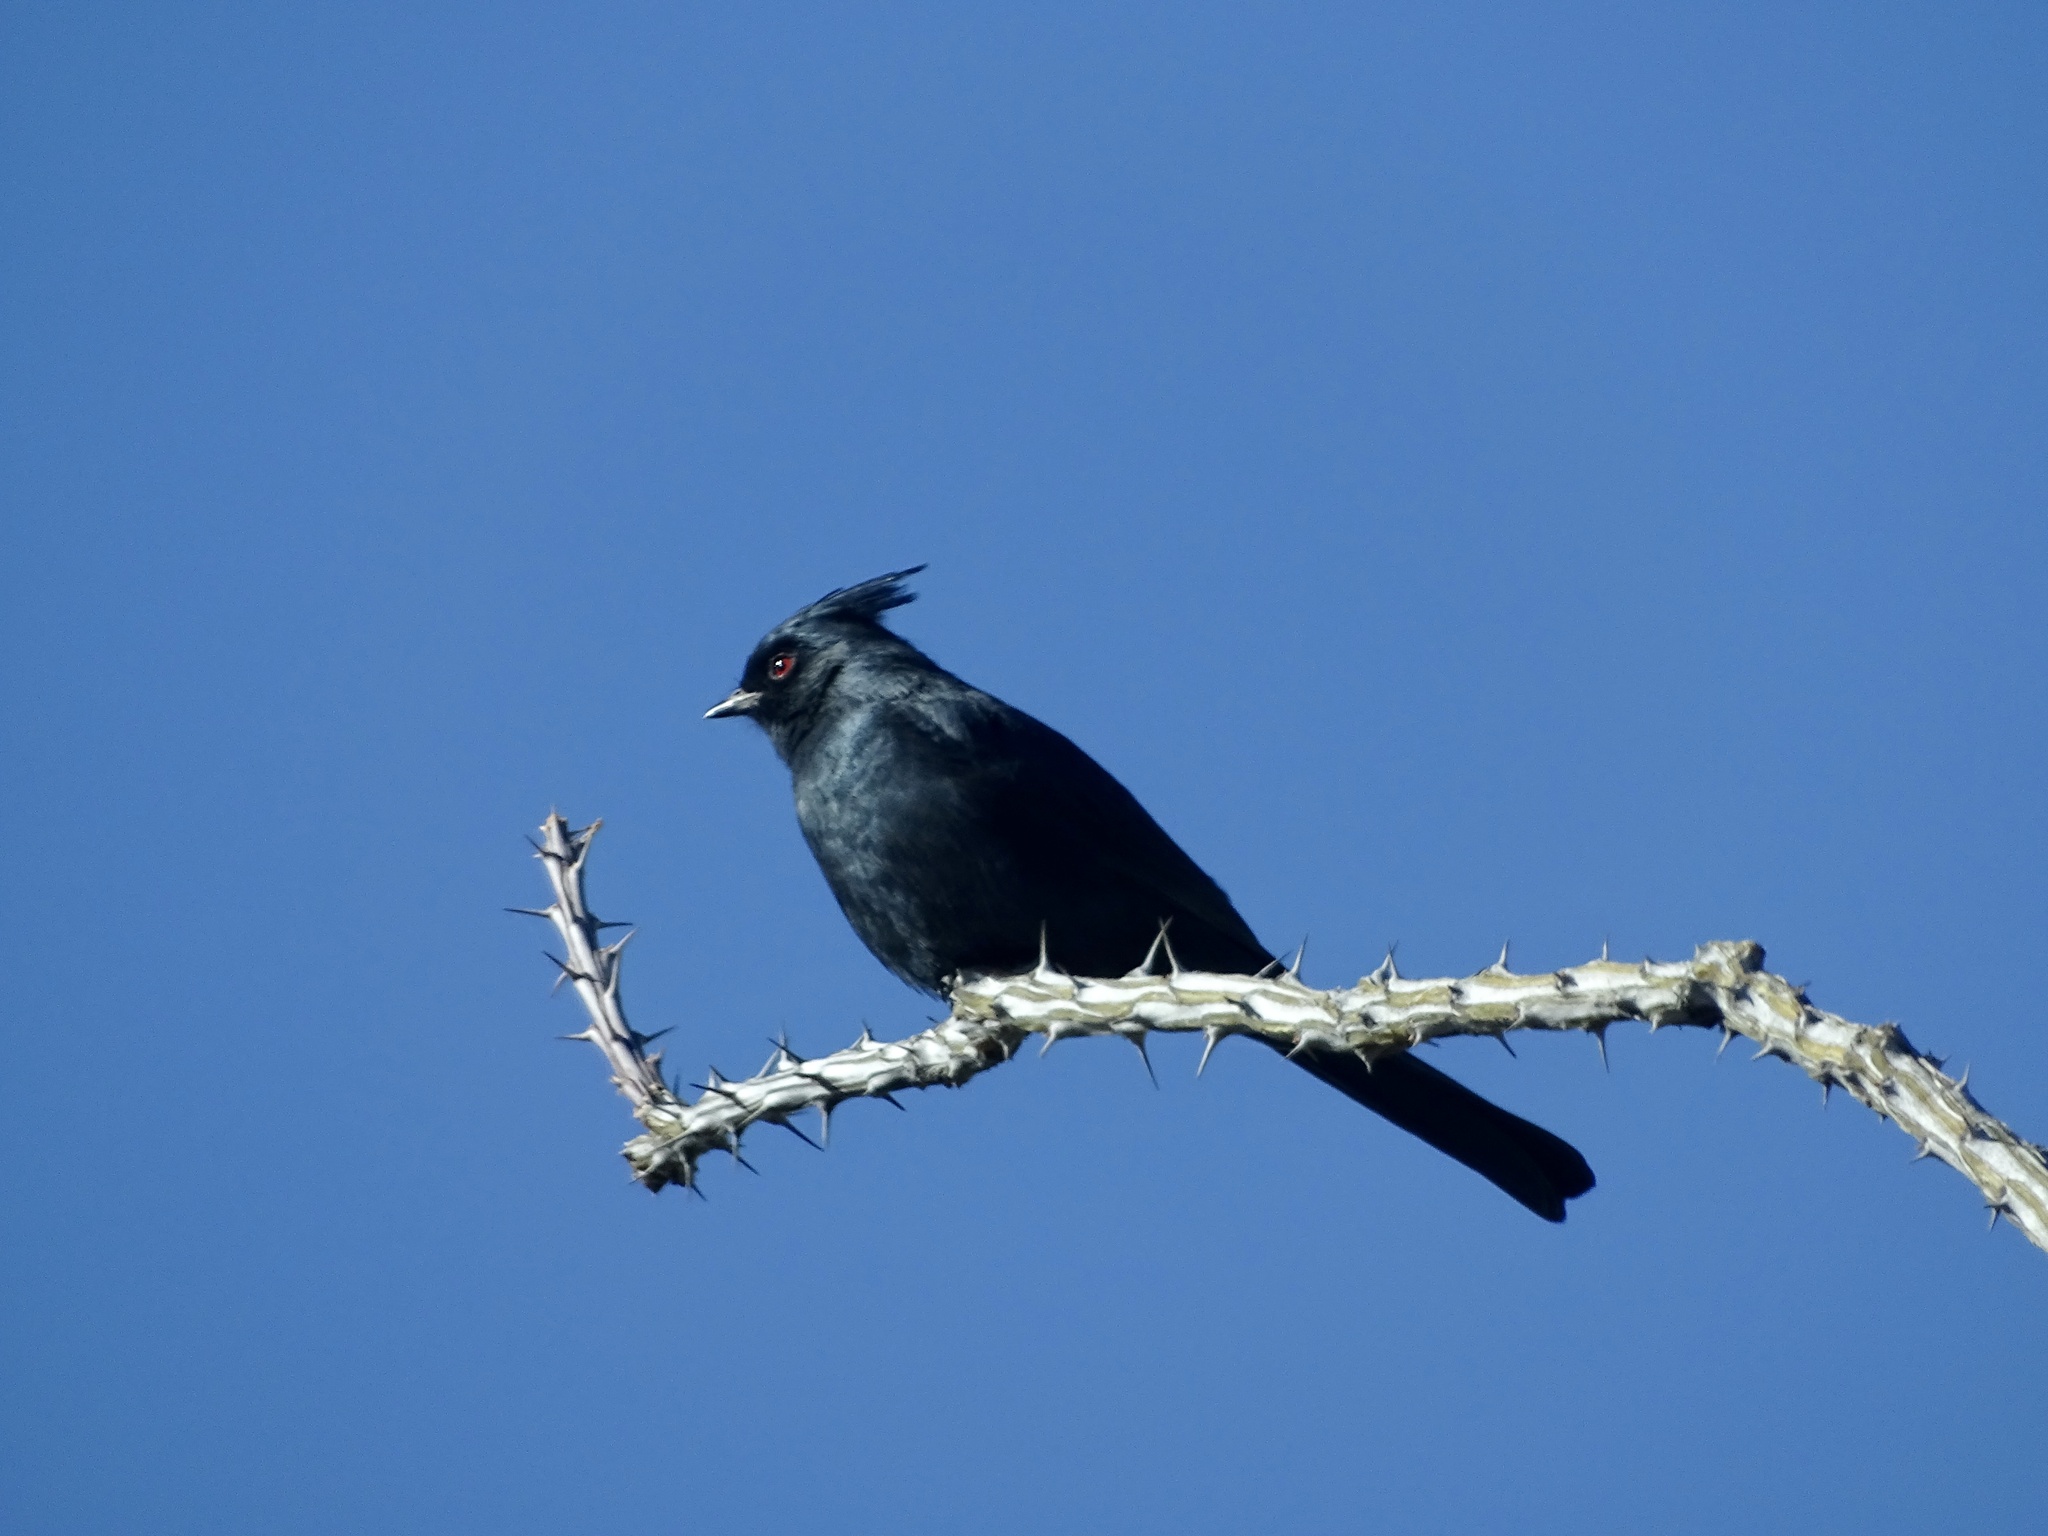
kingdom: Animalia
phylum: Chordata
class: Aves
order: Passeriformes
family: Ptilogonatidae
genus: Phainopepla
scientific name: Phainopepla nitens
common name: Phainopepla
